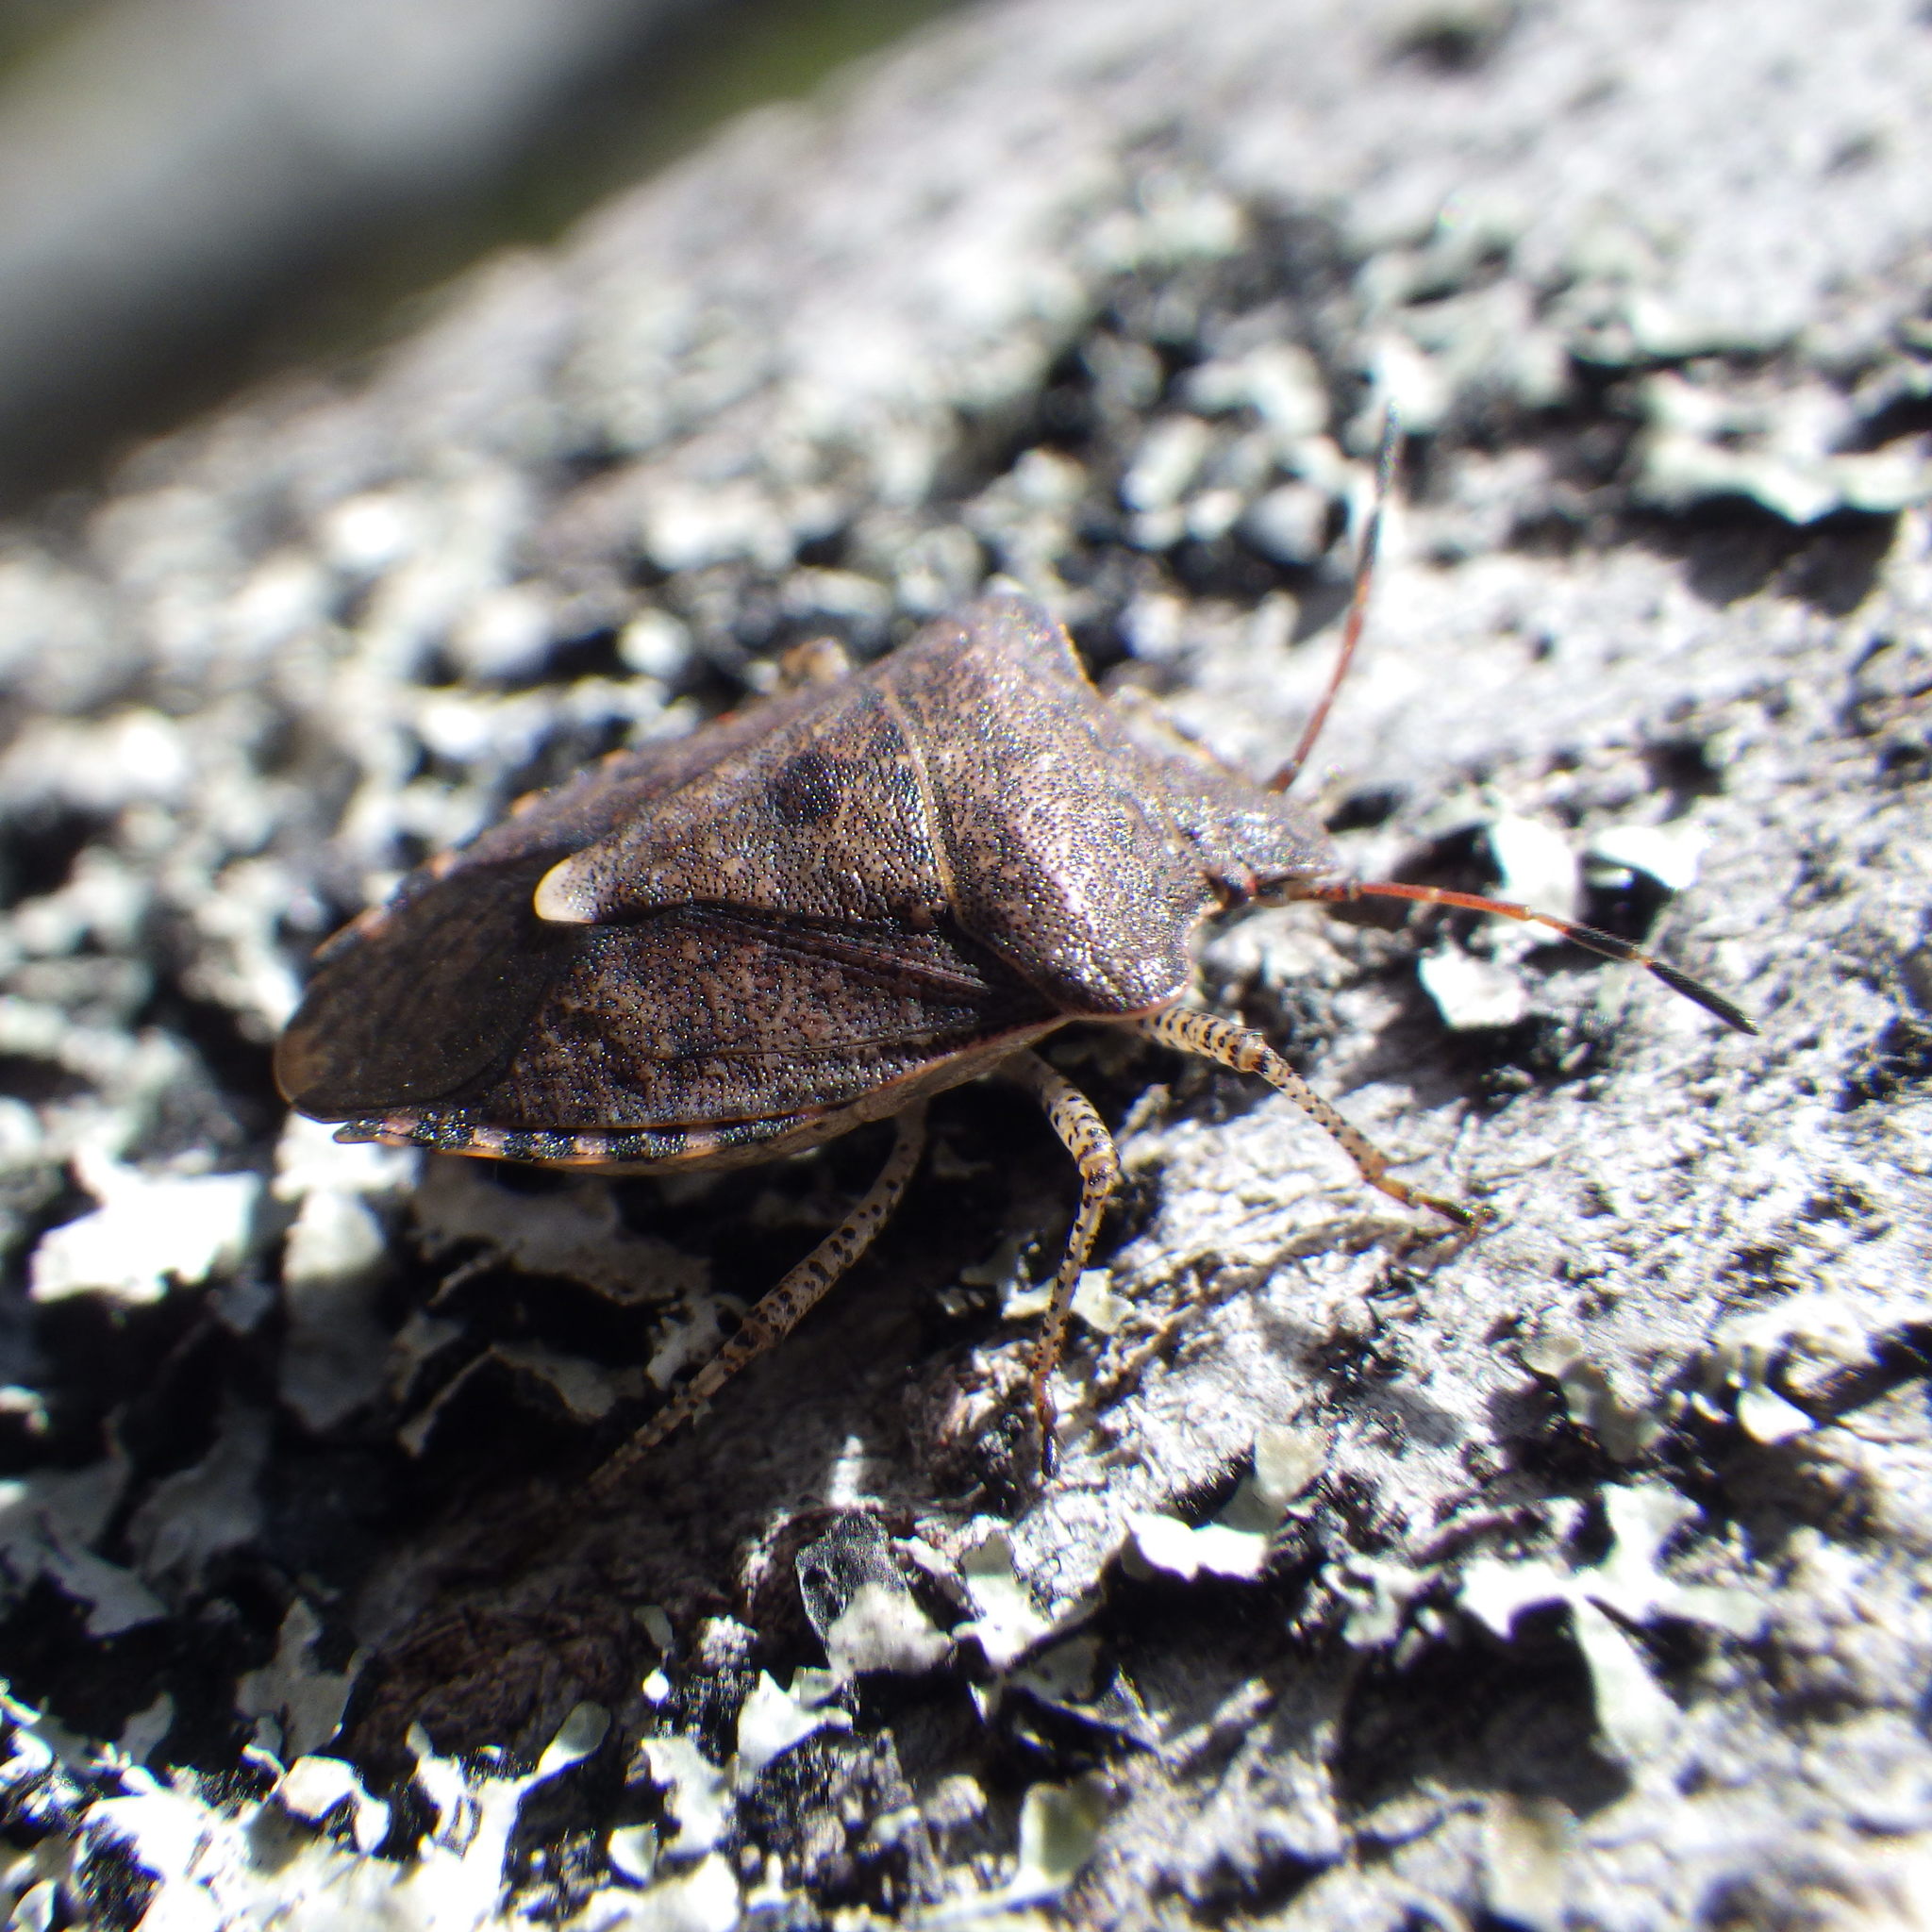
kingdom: Animalia
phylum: Arthropoda
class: Insecta
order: Hemiptera
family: Pentatomidae
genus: Euschistus
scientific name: Euschistus tristigmus
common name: Dusky stink bug
